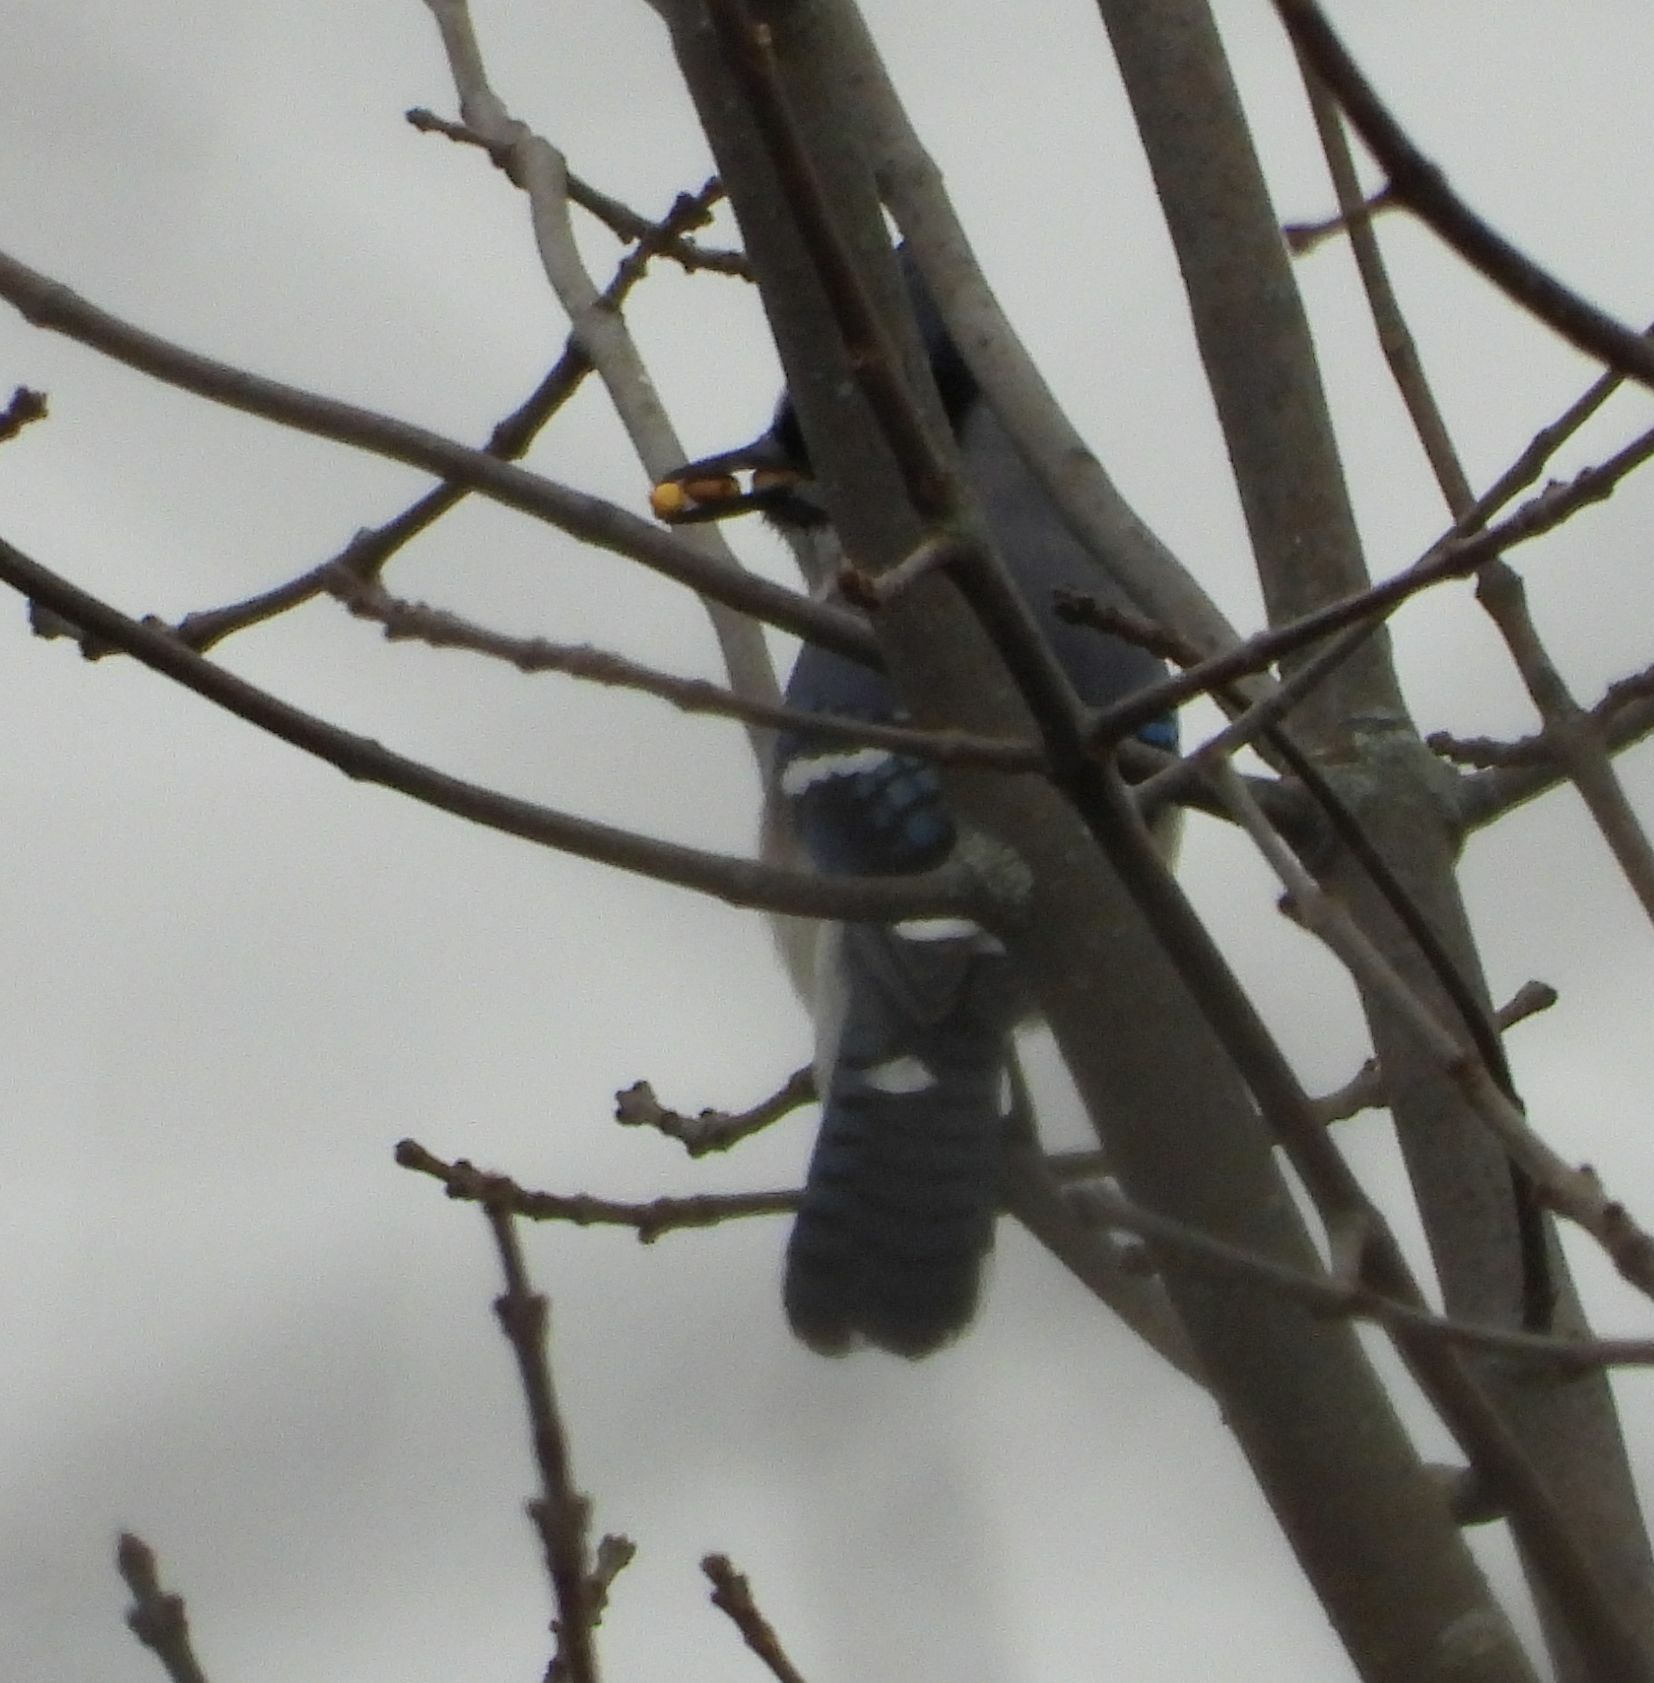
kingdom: Animalia
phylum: Chordata
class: Aves
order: Passeriformes
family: Corvidae
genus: Cyanocitta
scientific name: Cyanocitta cristata
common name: Blue jay
